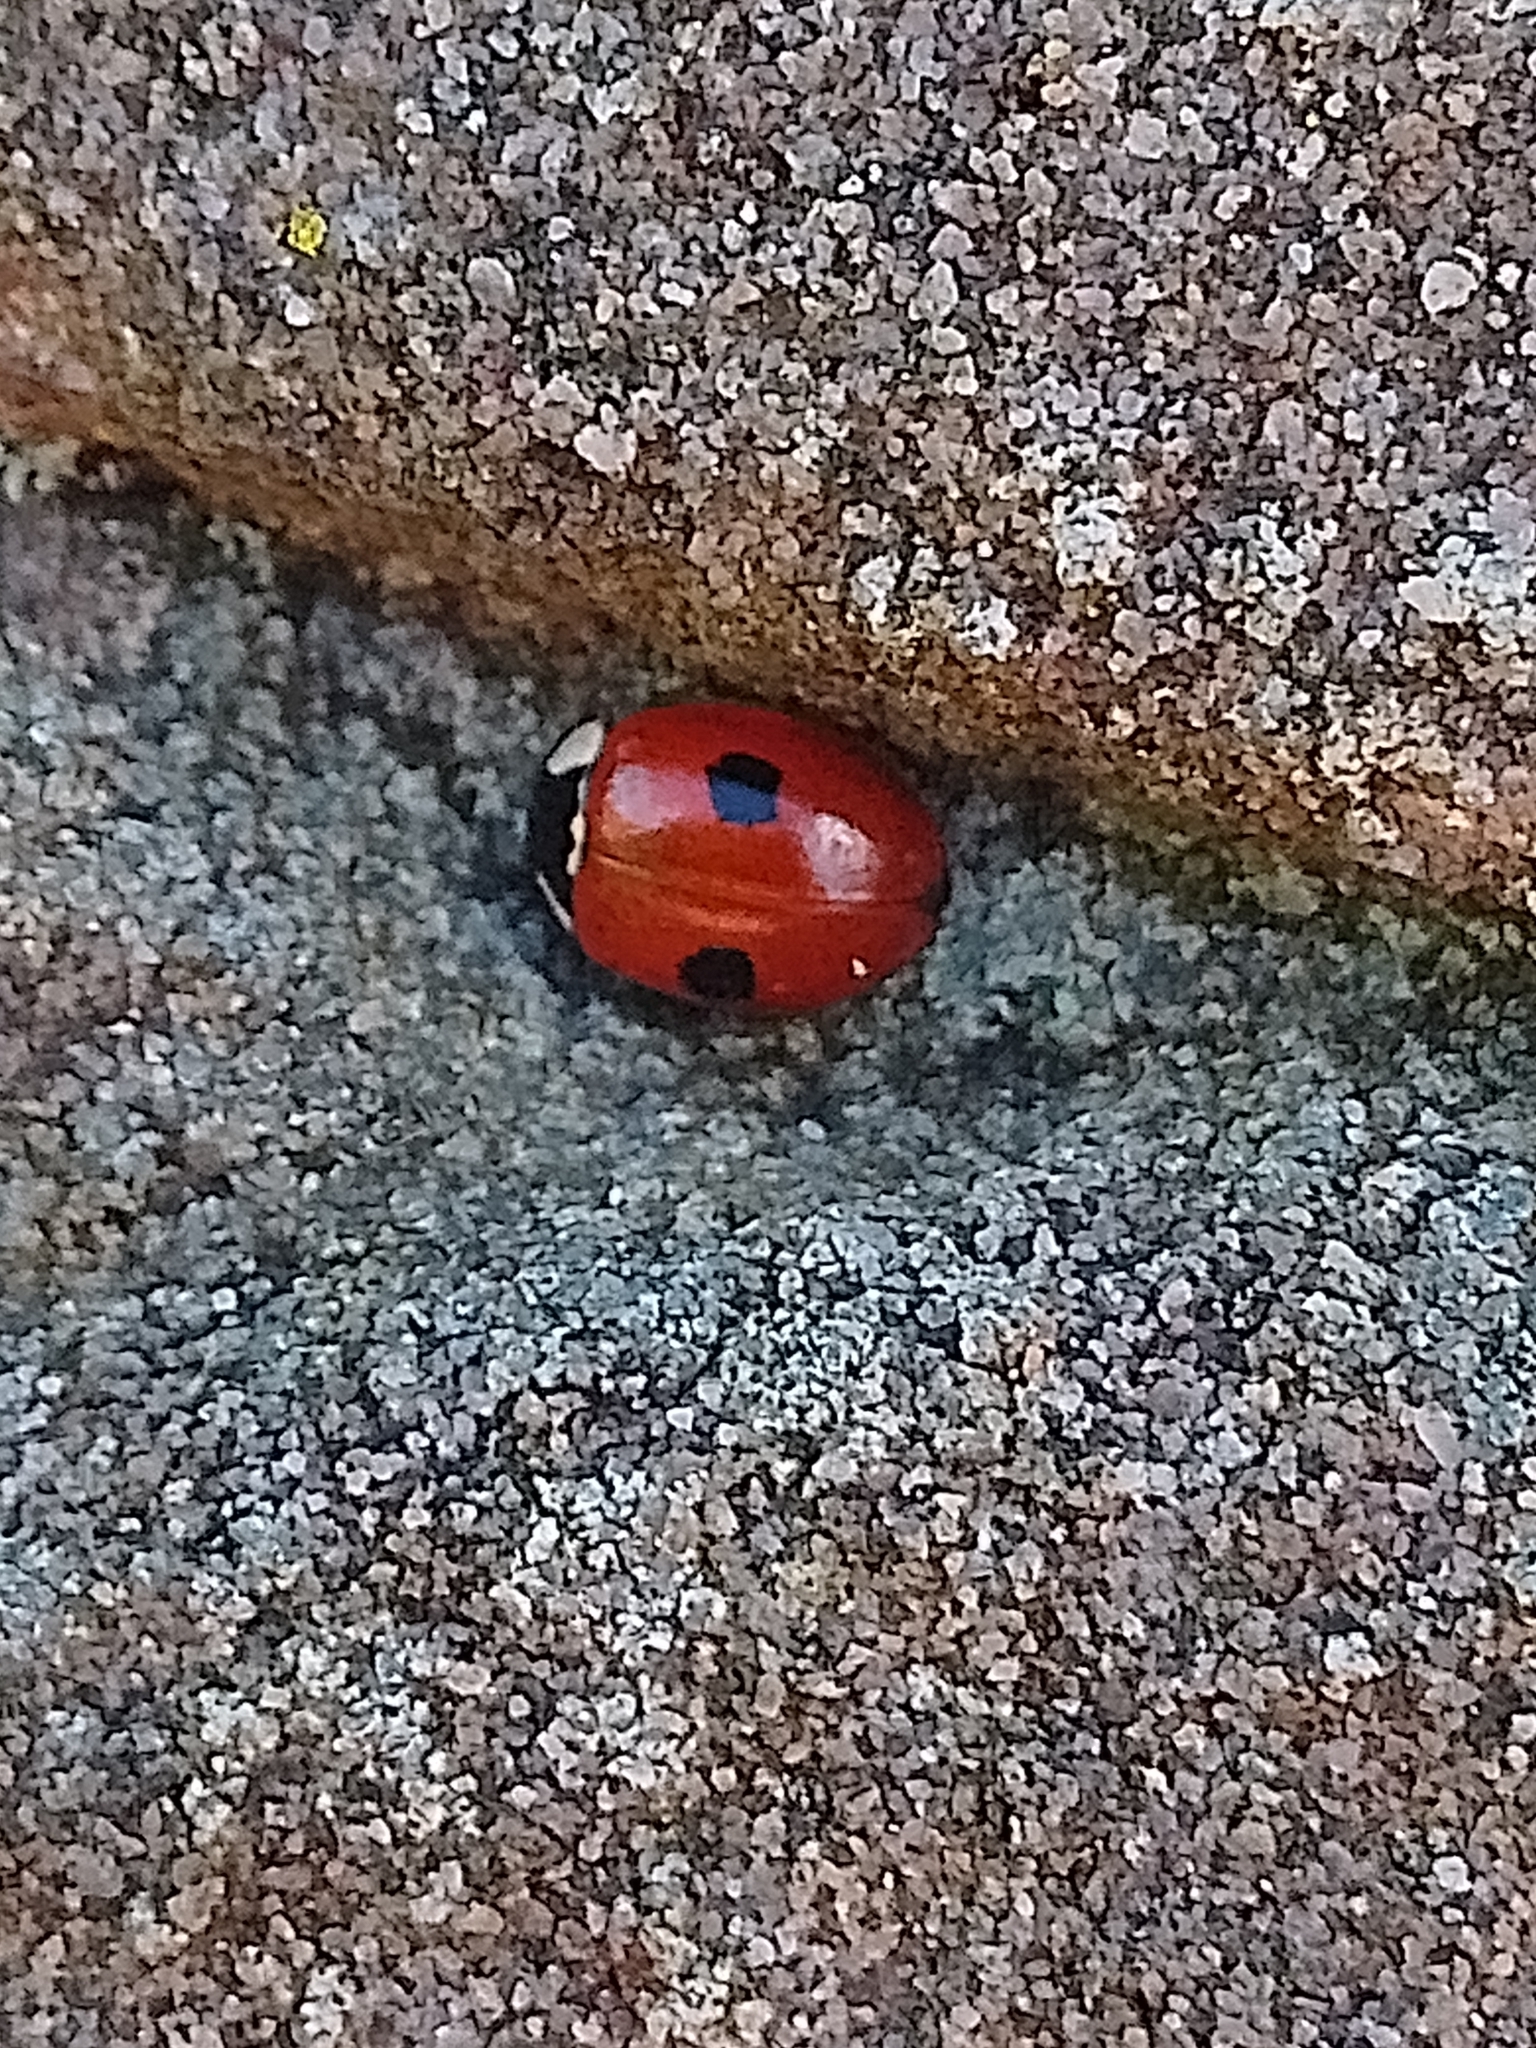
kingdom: Animalia
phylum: Arthropoda
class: Insecta
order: Coleoptera
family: Coccinellidae
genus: Adalia
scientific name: Adalia bipunctata
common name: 2-spot ladybird
